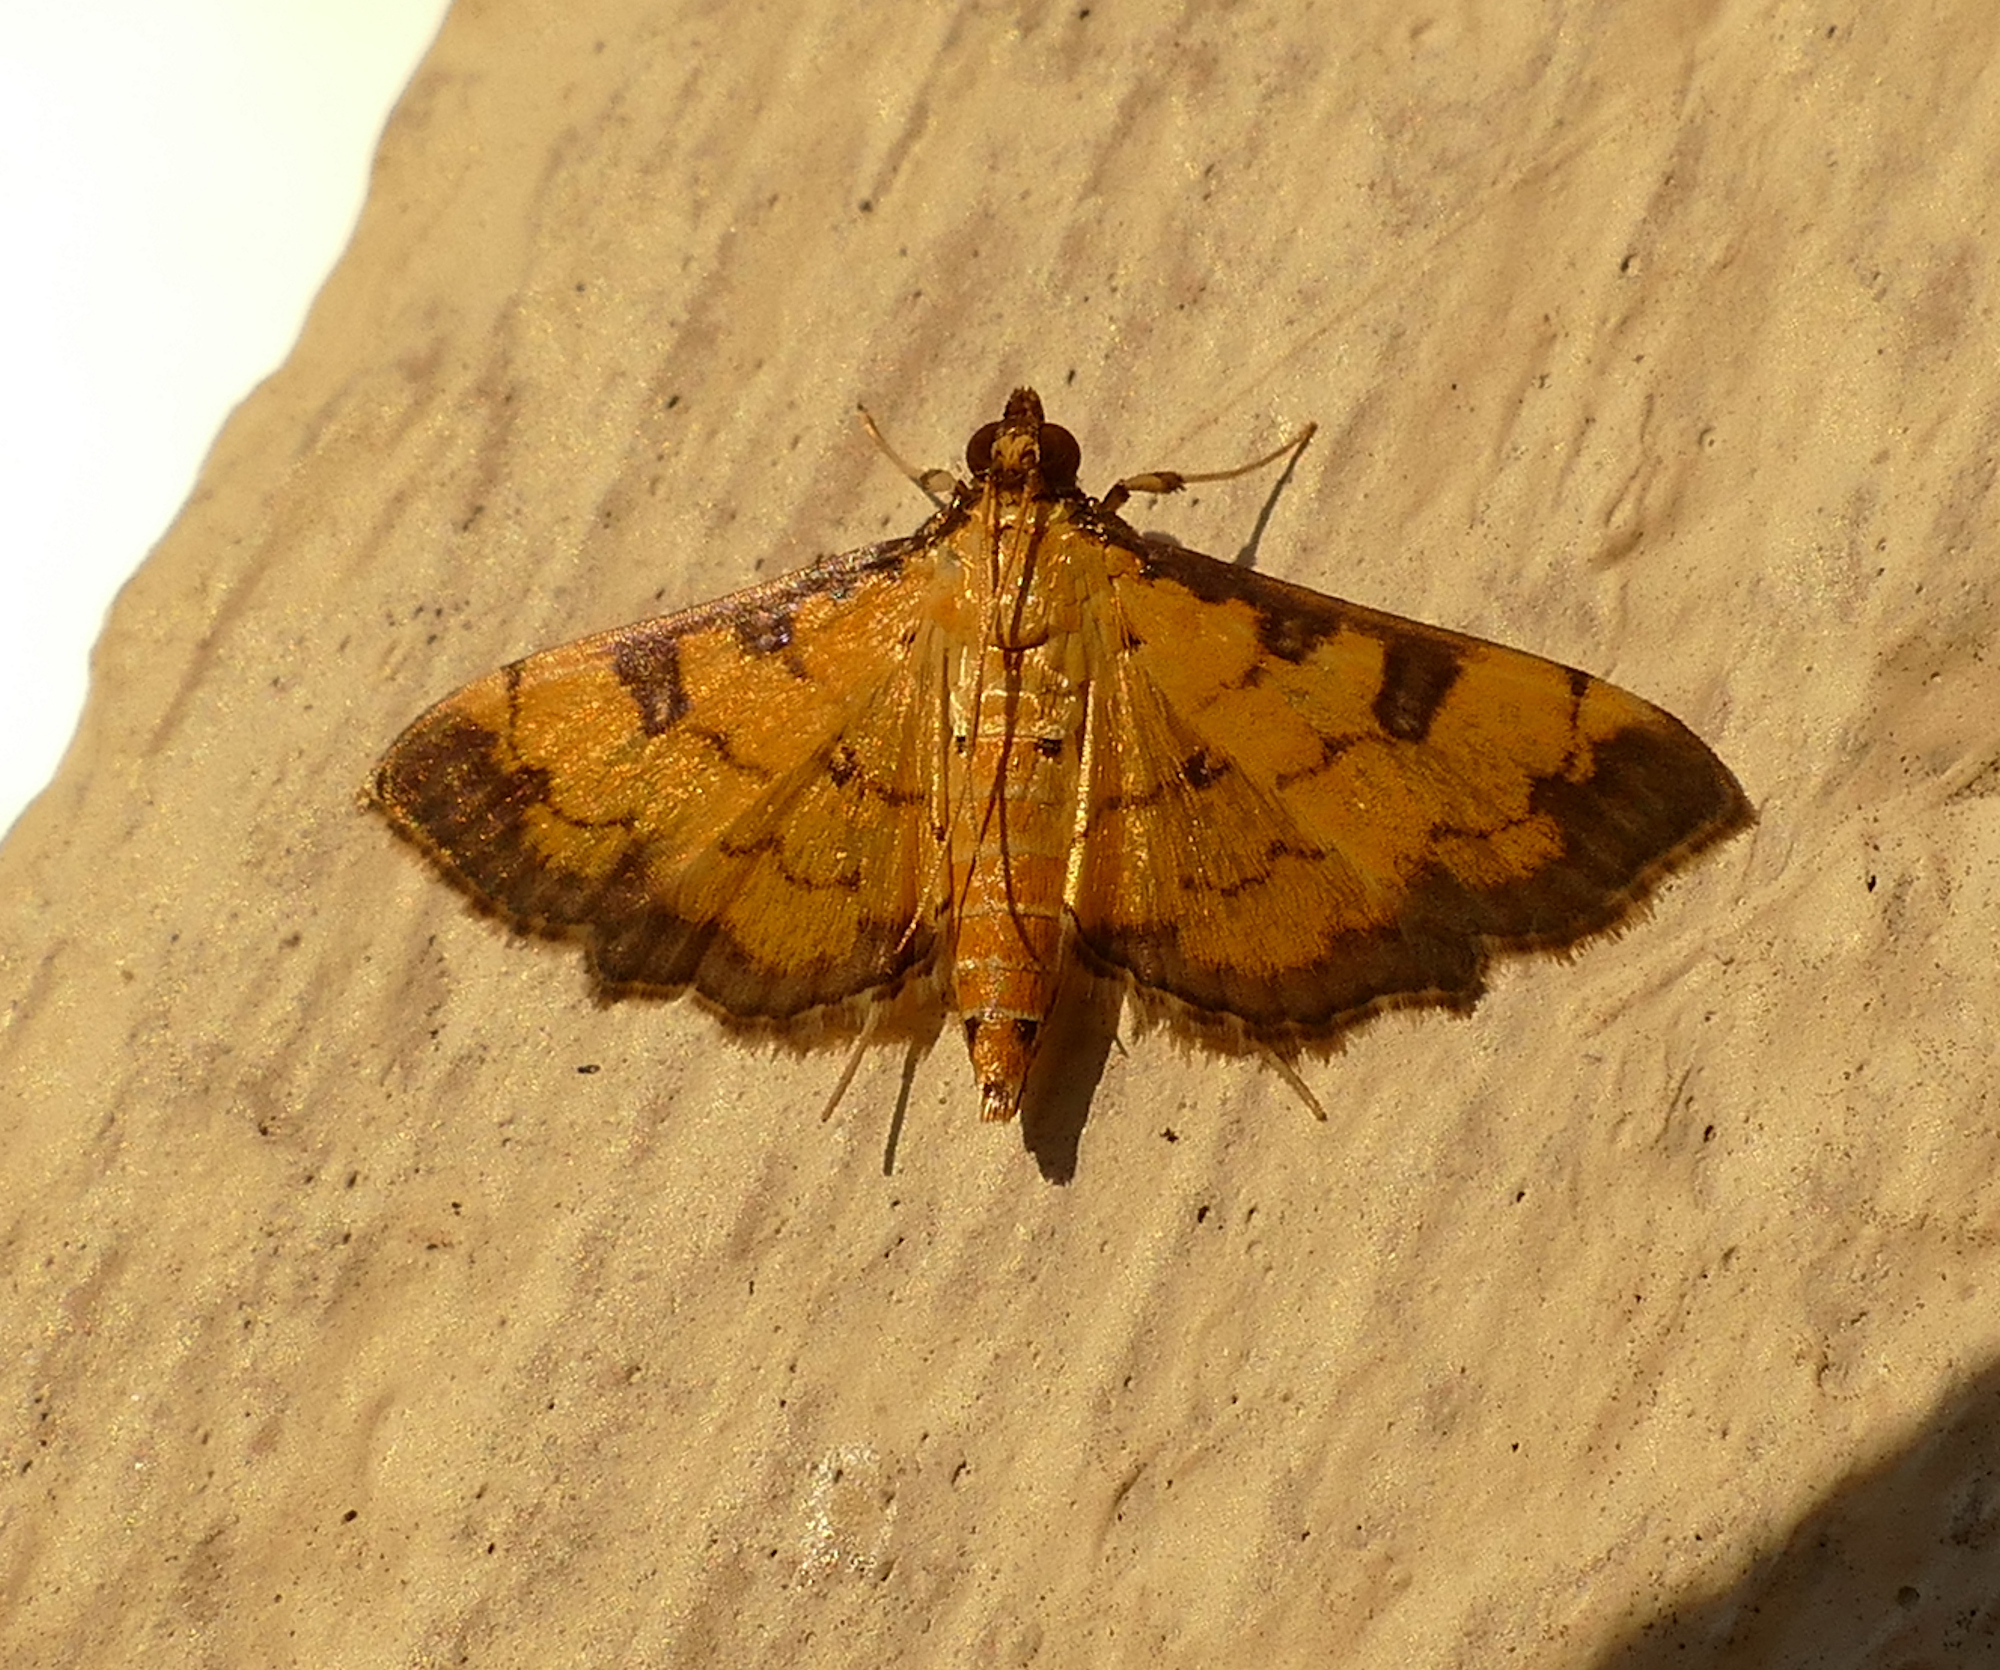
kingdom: Animalia
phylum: Arthropoda
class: Insecta
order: Lepidoptera
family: Crambidae
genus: Ategumia
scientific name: Ategumia ebulealis
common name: Moth
